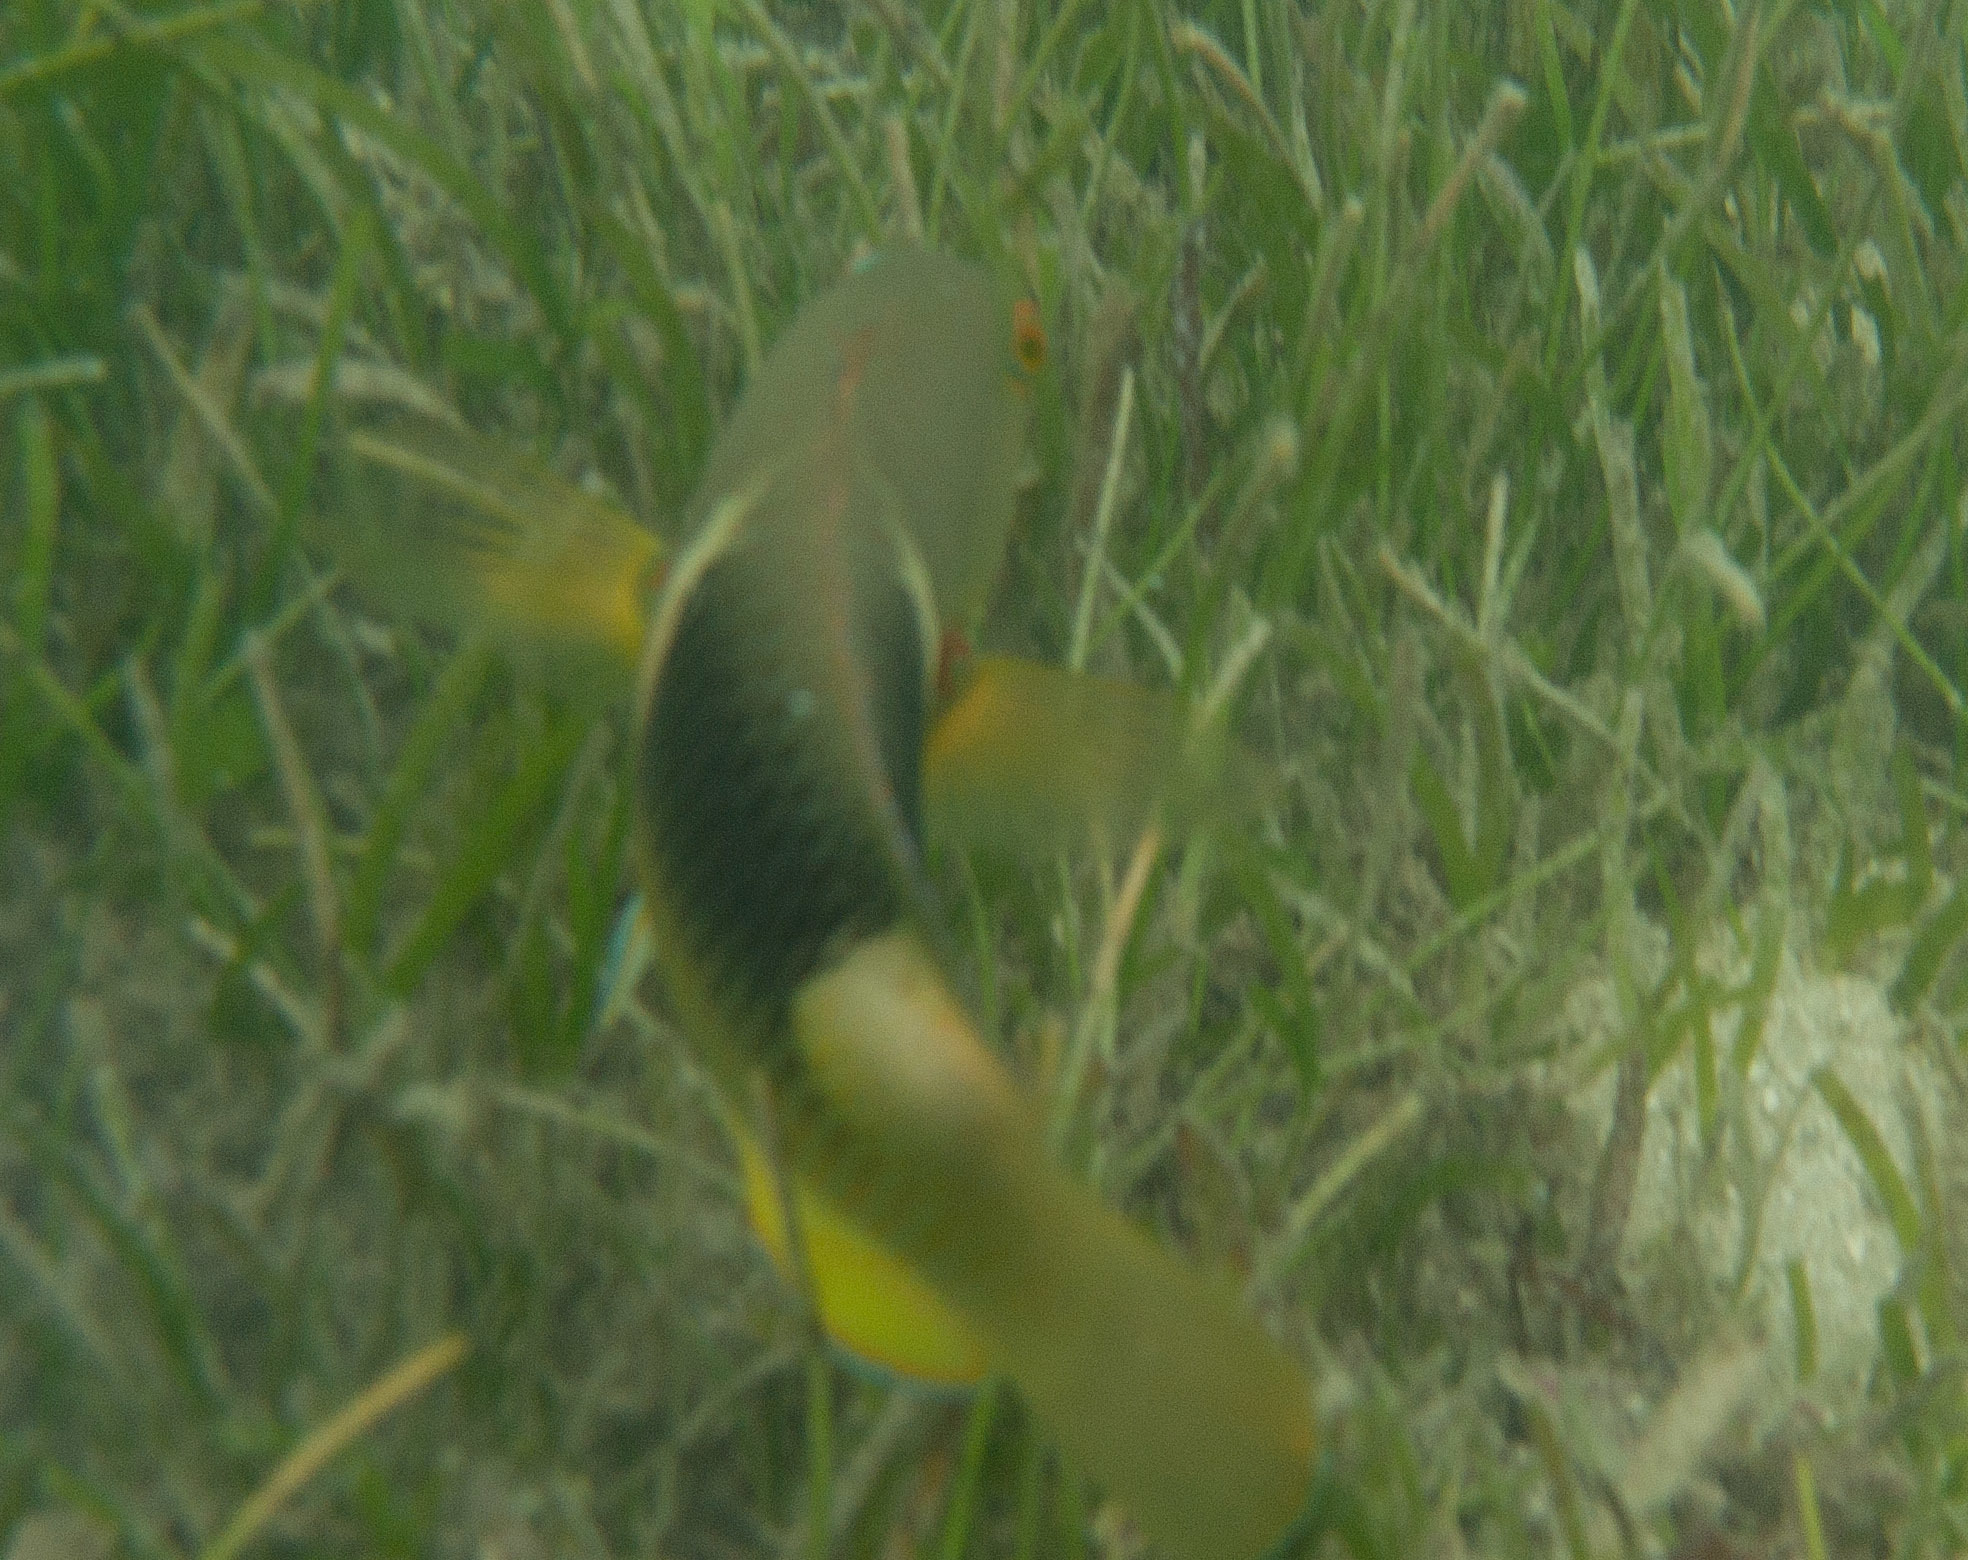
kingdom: Animalia
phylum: Chordata
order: Perciformes
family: Labridae
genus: Choerodon
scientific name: Choerodon anchorago
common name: Anchor tuskfish
